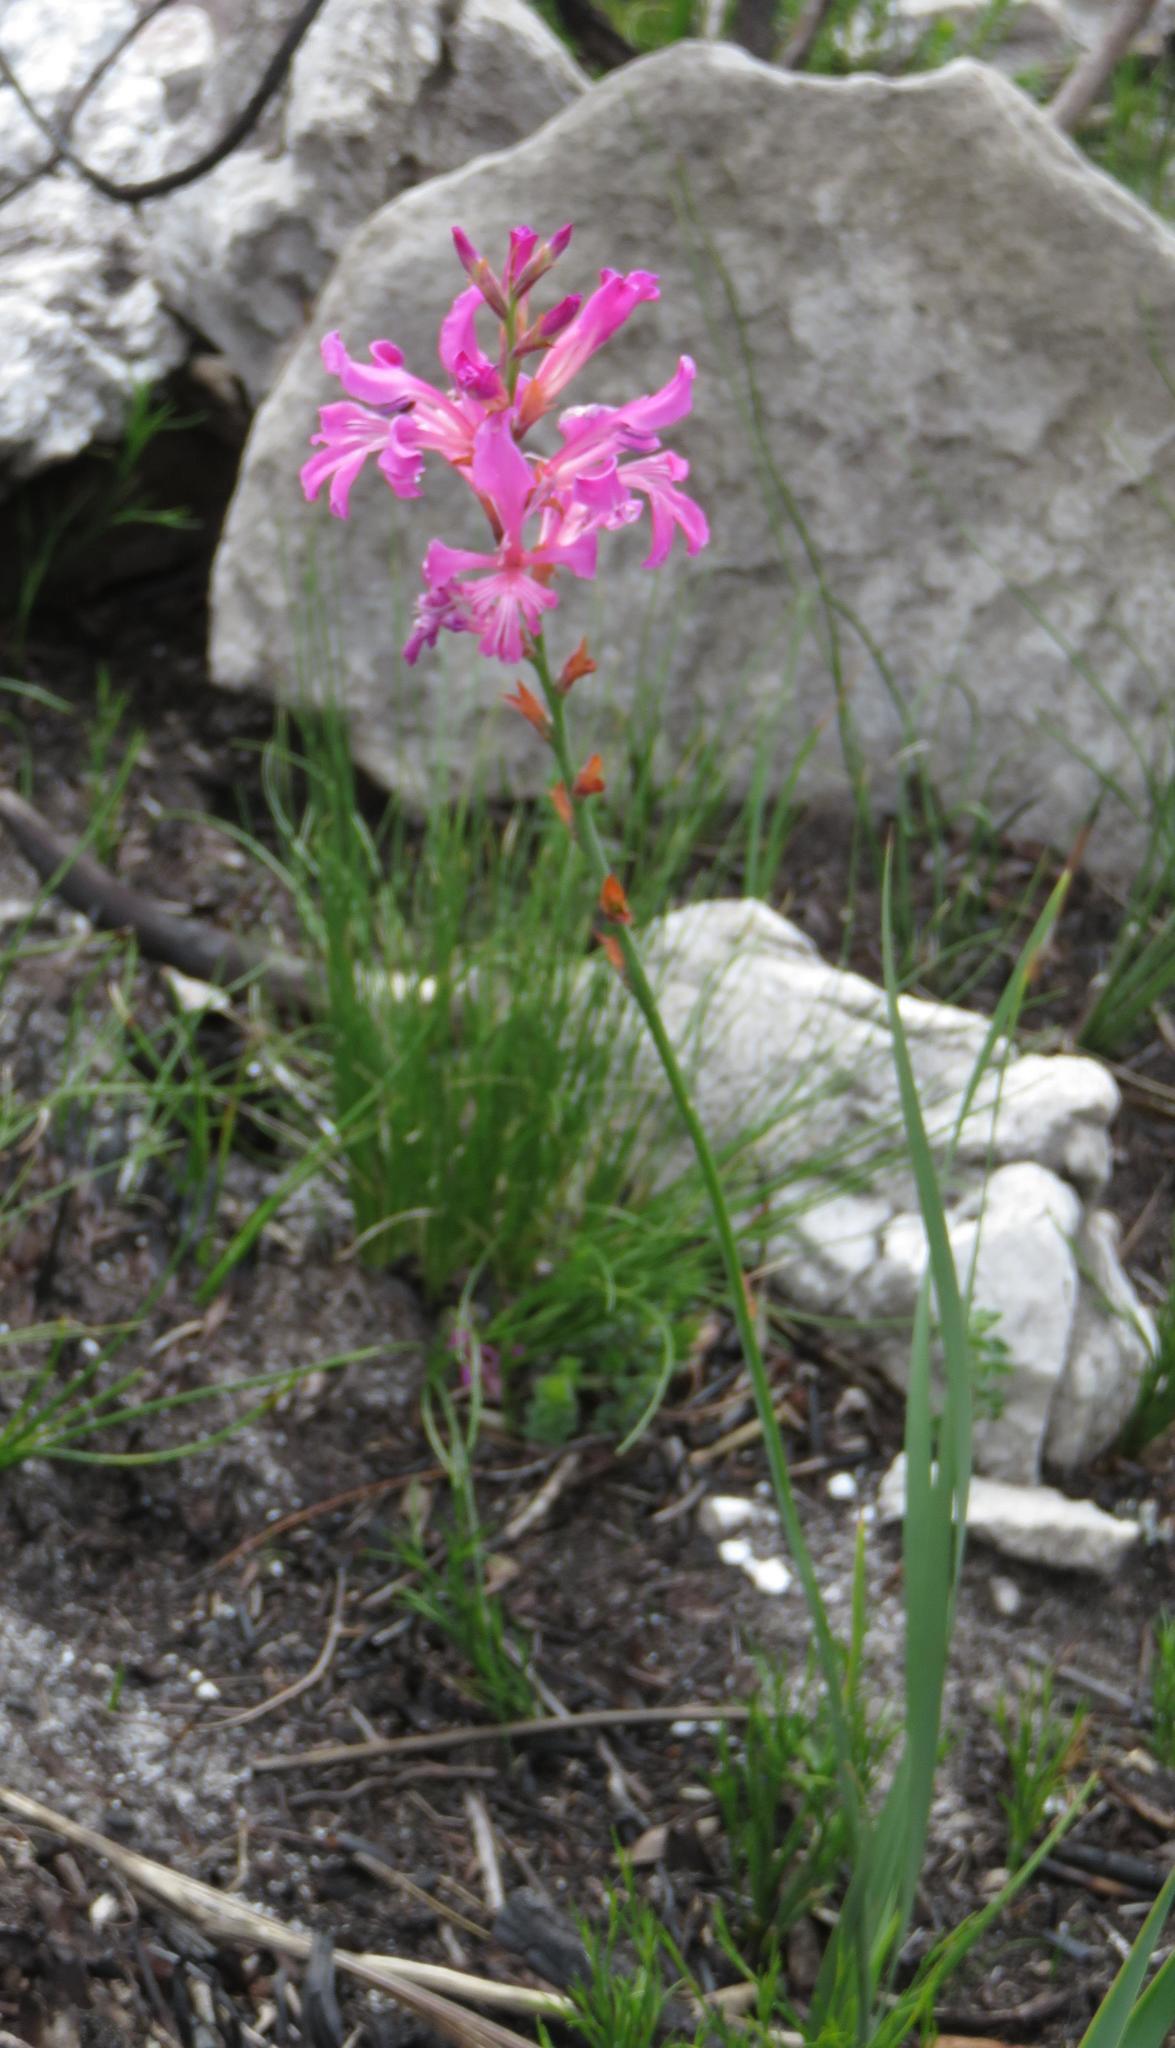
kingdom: Plantae
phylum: Tracheophyta
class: Liliopsida
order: Asparagales
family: Iridaceae
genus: Tritoniopsis
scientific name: Tritoniopsis lata
